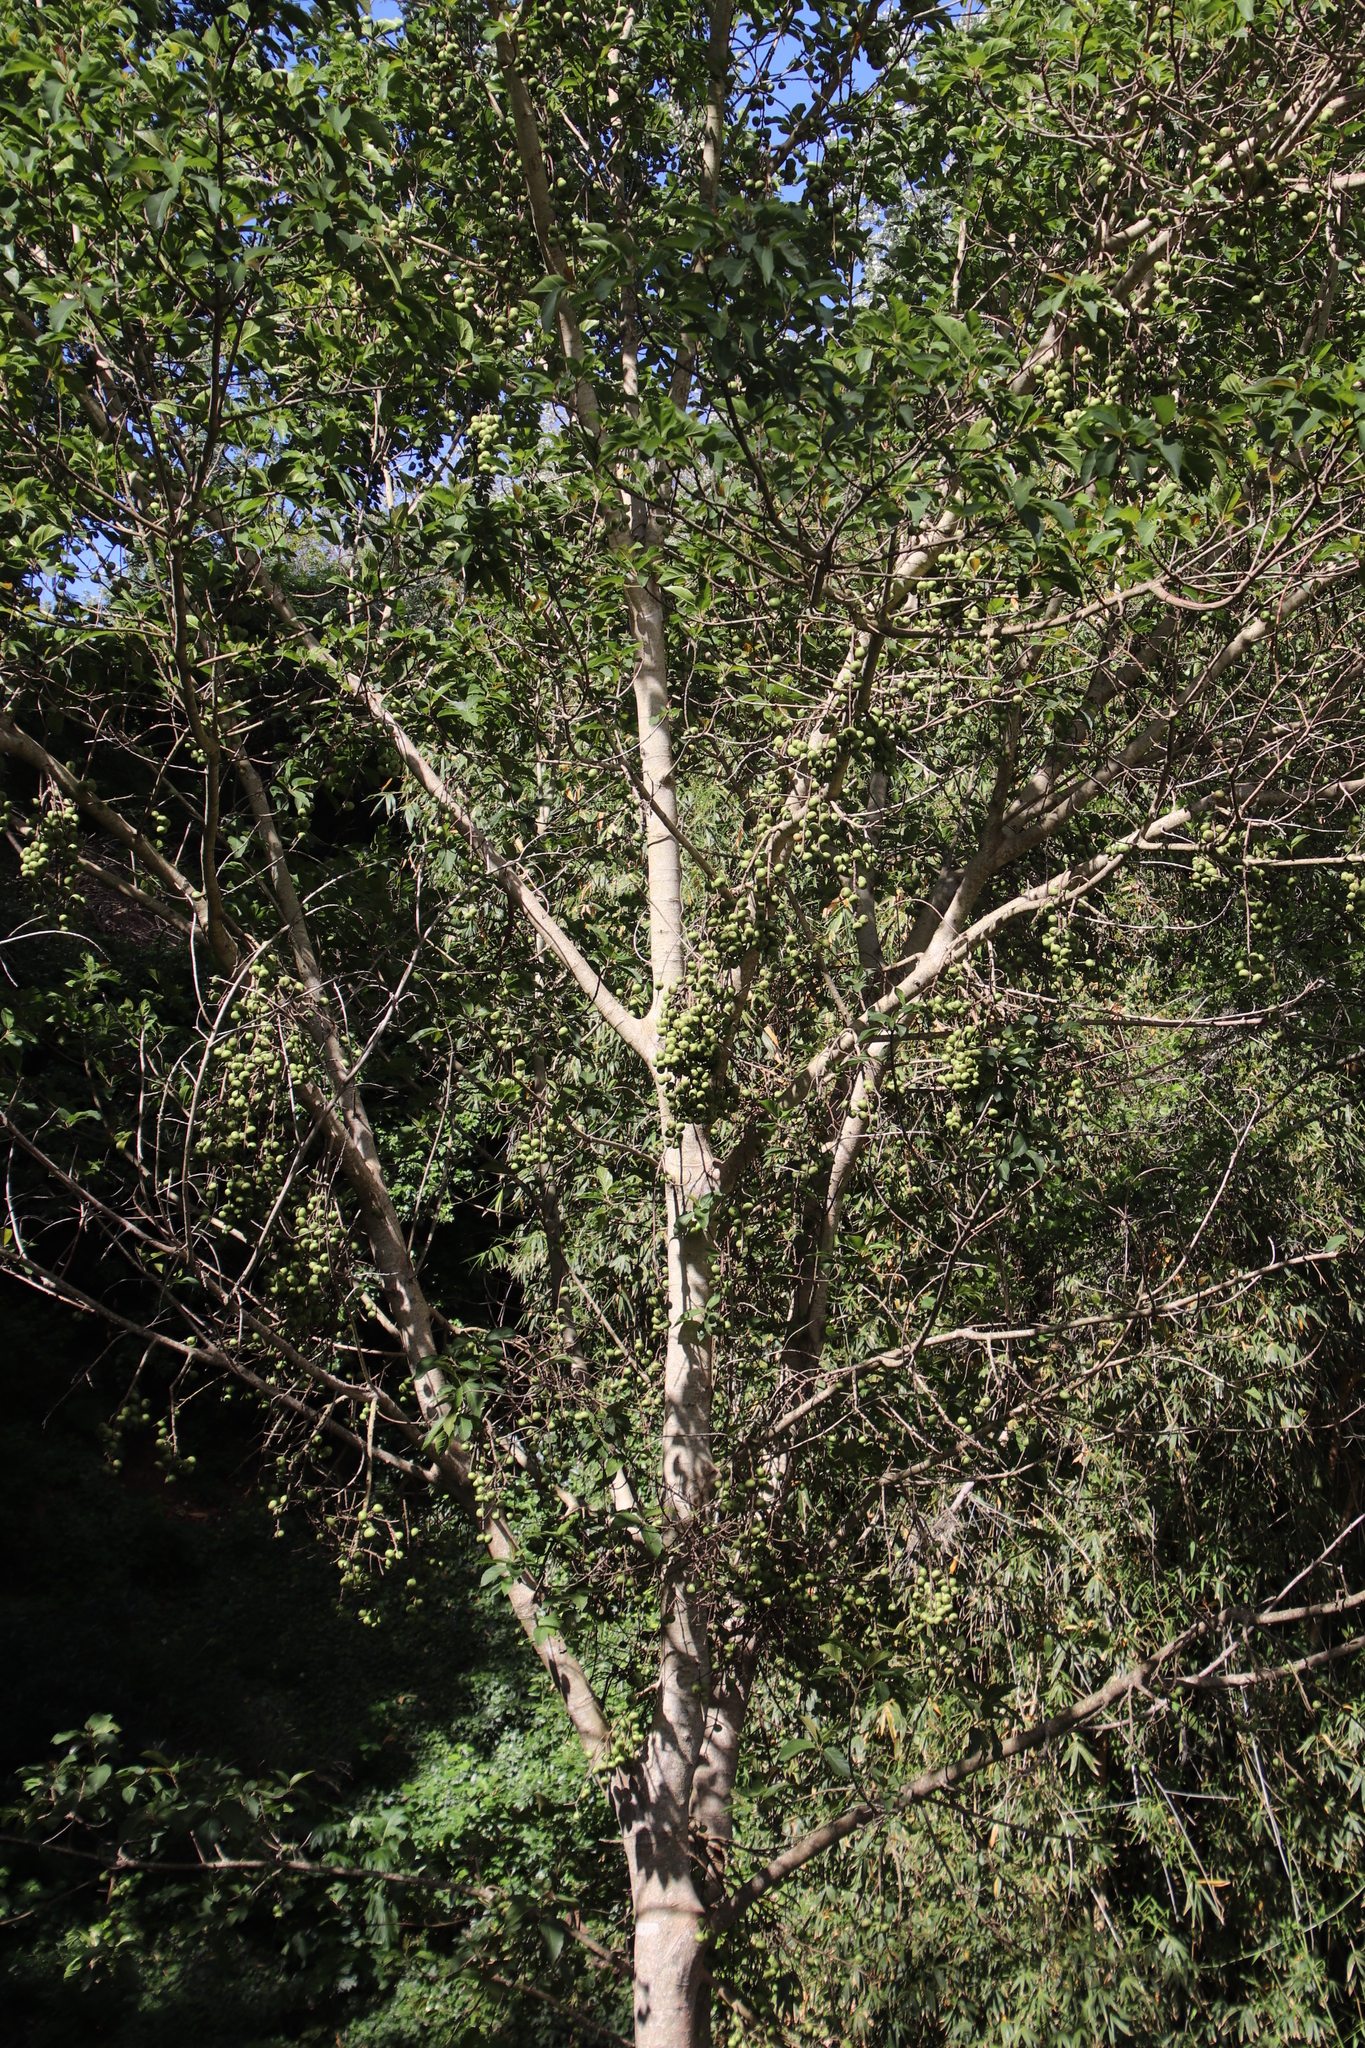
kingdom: Plantae
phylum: Tracheophyta
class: Magnoliopsida
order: Rosales
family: Moraceae
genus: Ficus
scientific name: Ficus sur
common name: Cape fig
